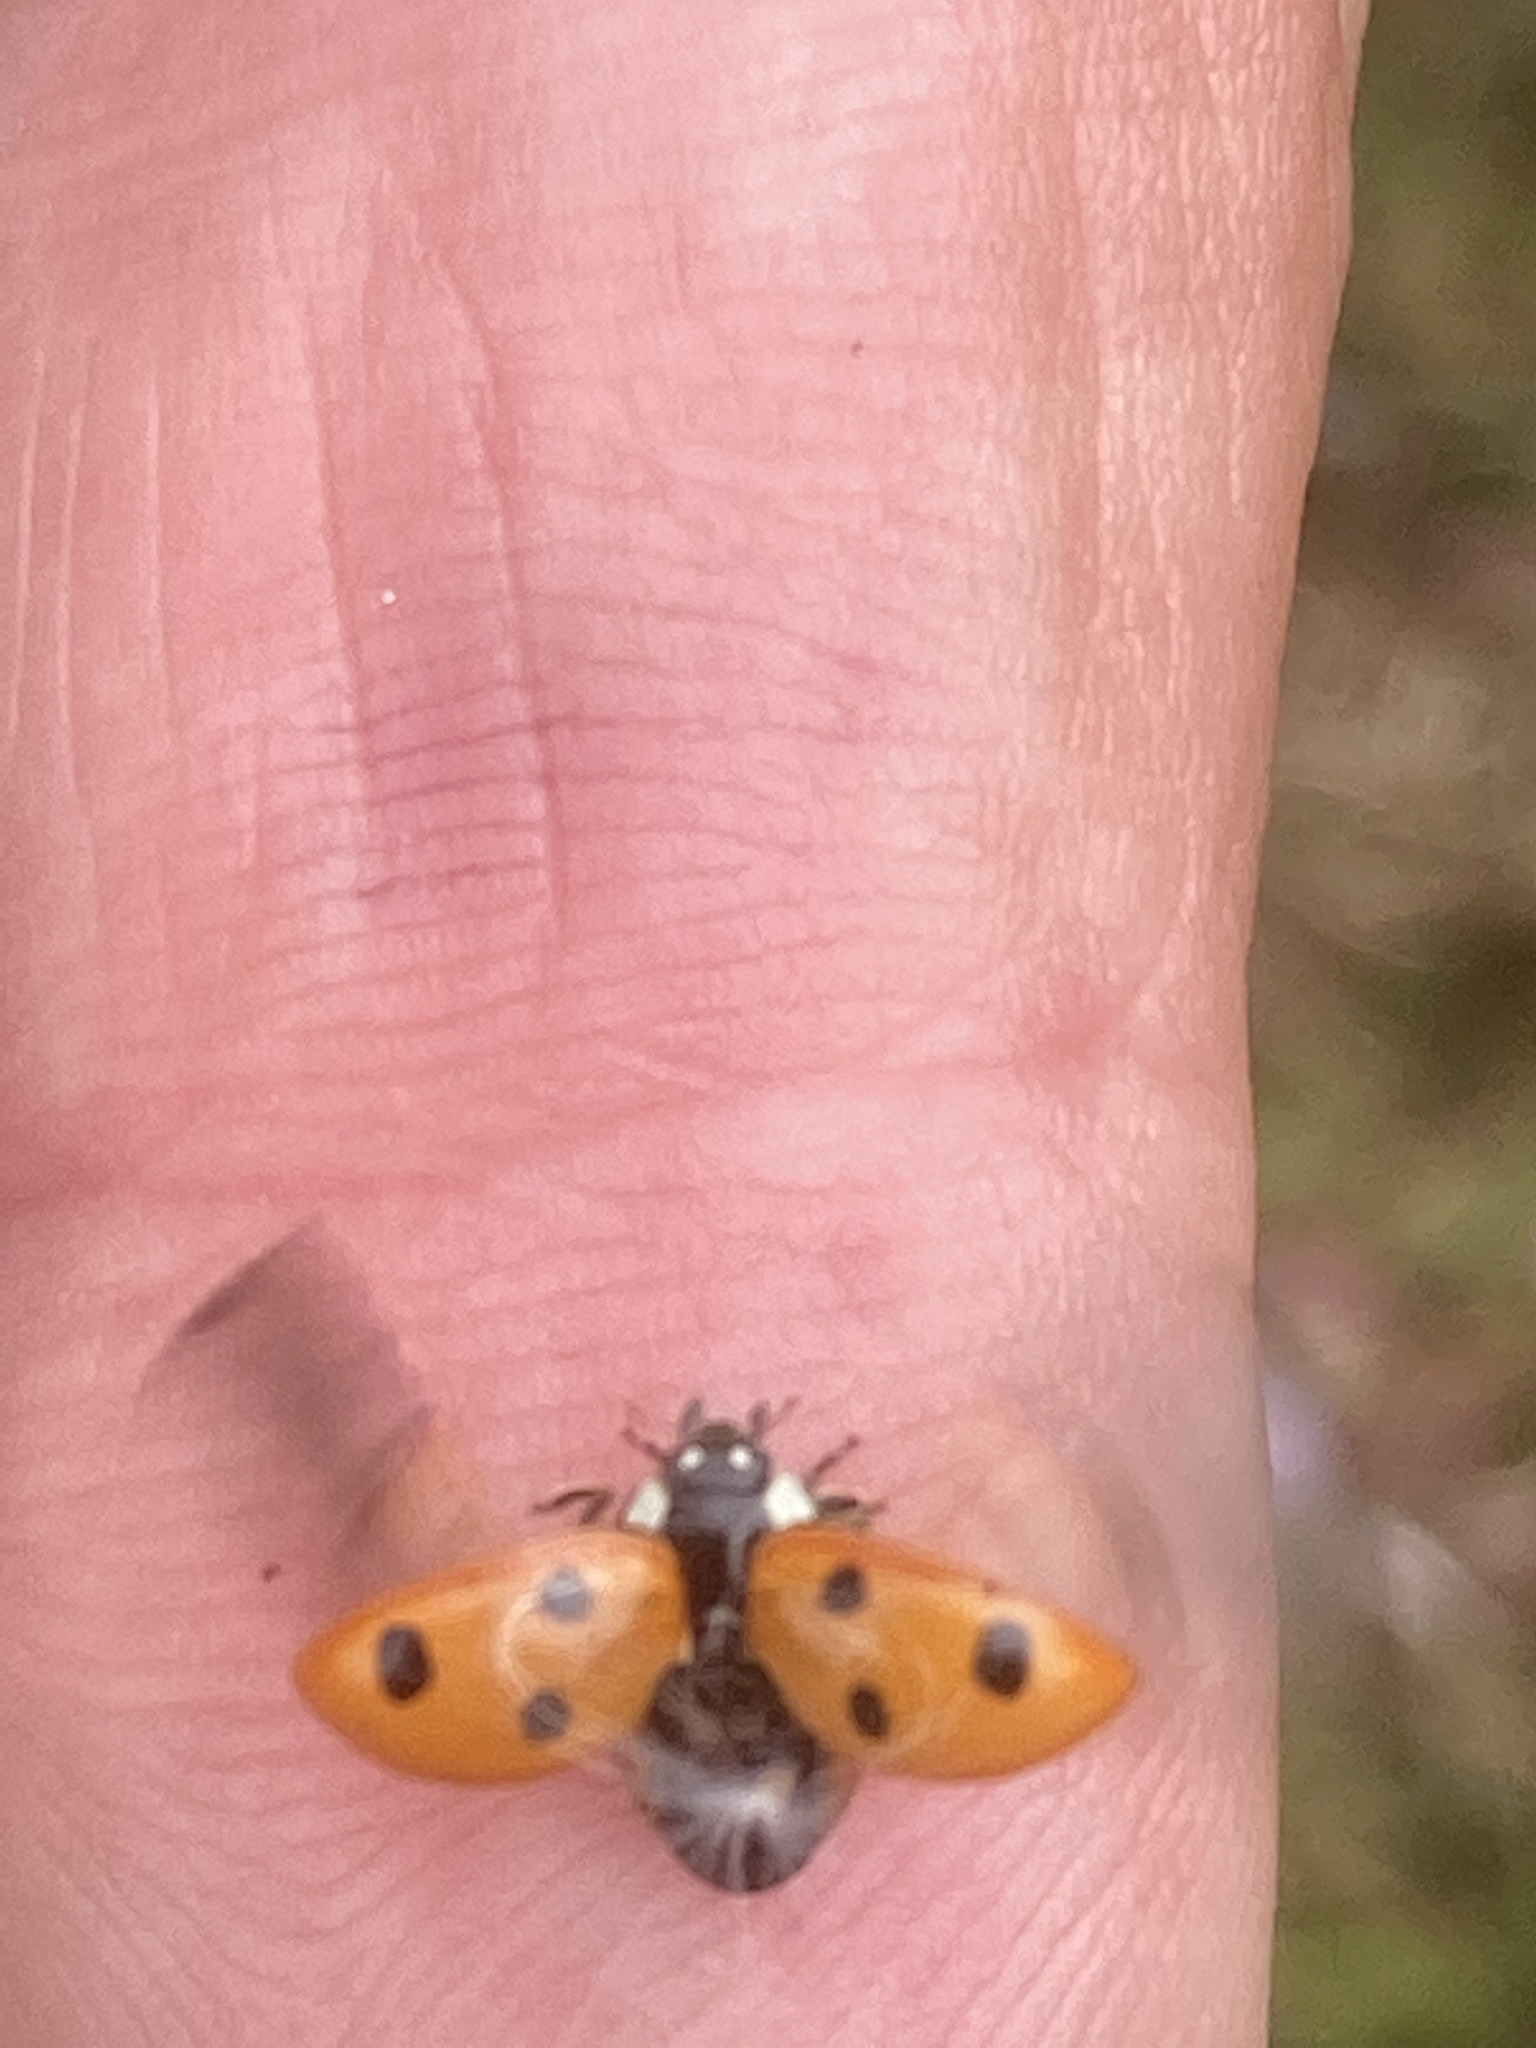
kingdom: Animalia
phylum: Arthropoda
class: Insecta
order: Coleoptera
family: Coccinellidae
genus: Coccinella
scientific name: Coccinella septempunctata
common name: Sevenspotted lady beetle
